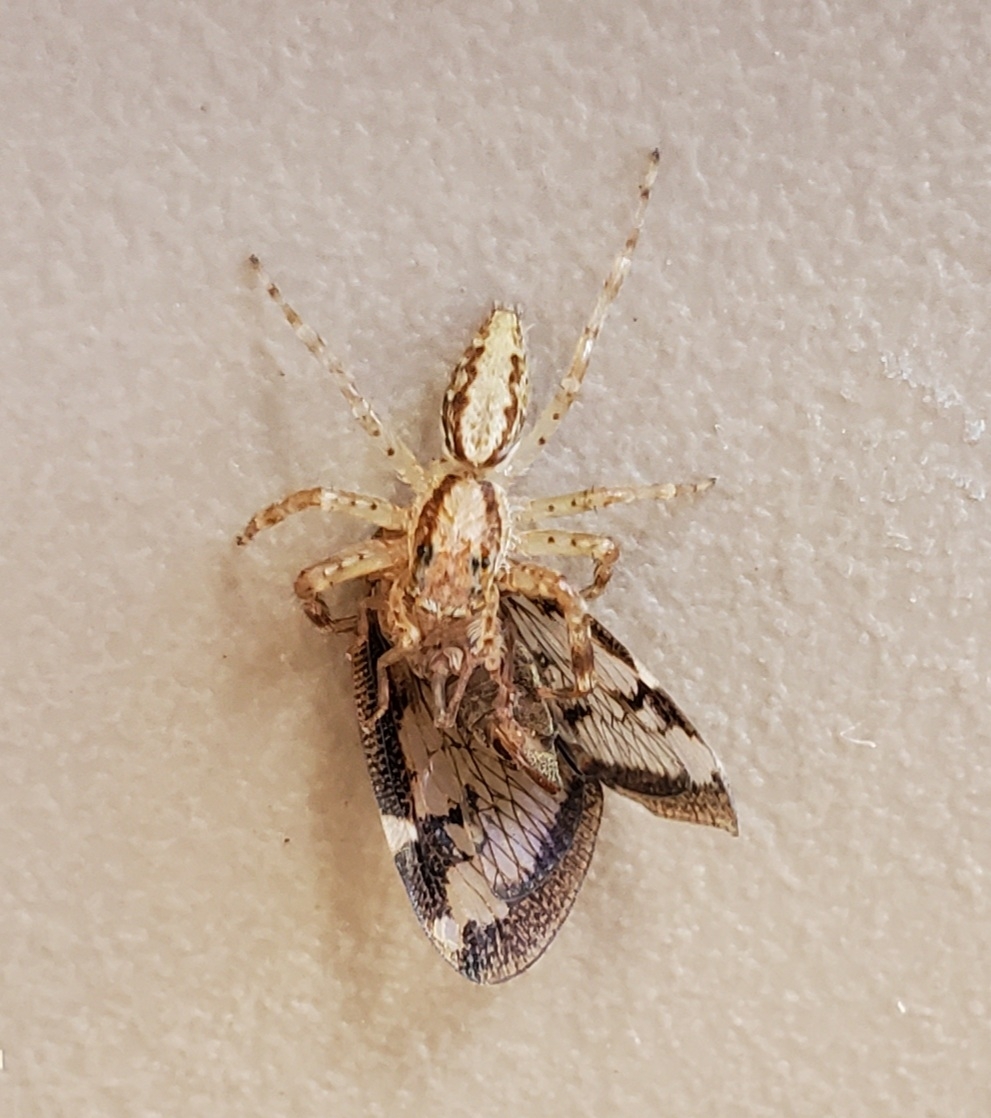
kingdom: Animalia
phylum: Arthropoda
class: Arachnida
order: Araneae
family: Salticidae
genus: Helpis
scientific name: Helpis minitabunda
